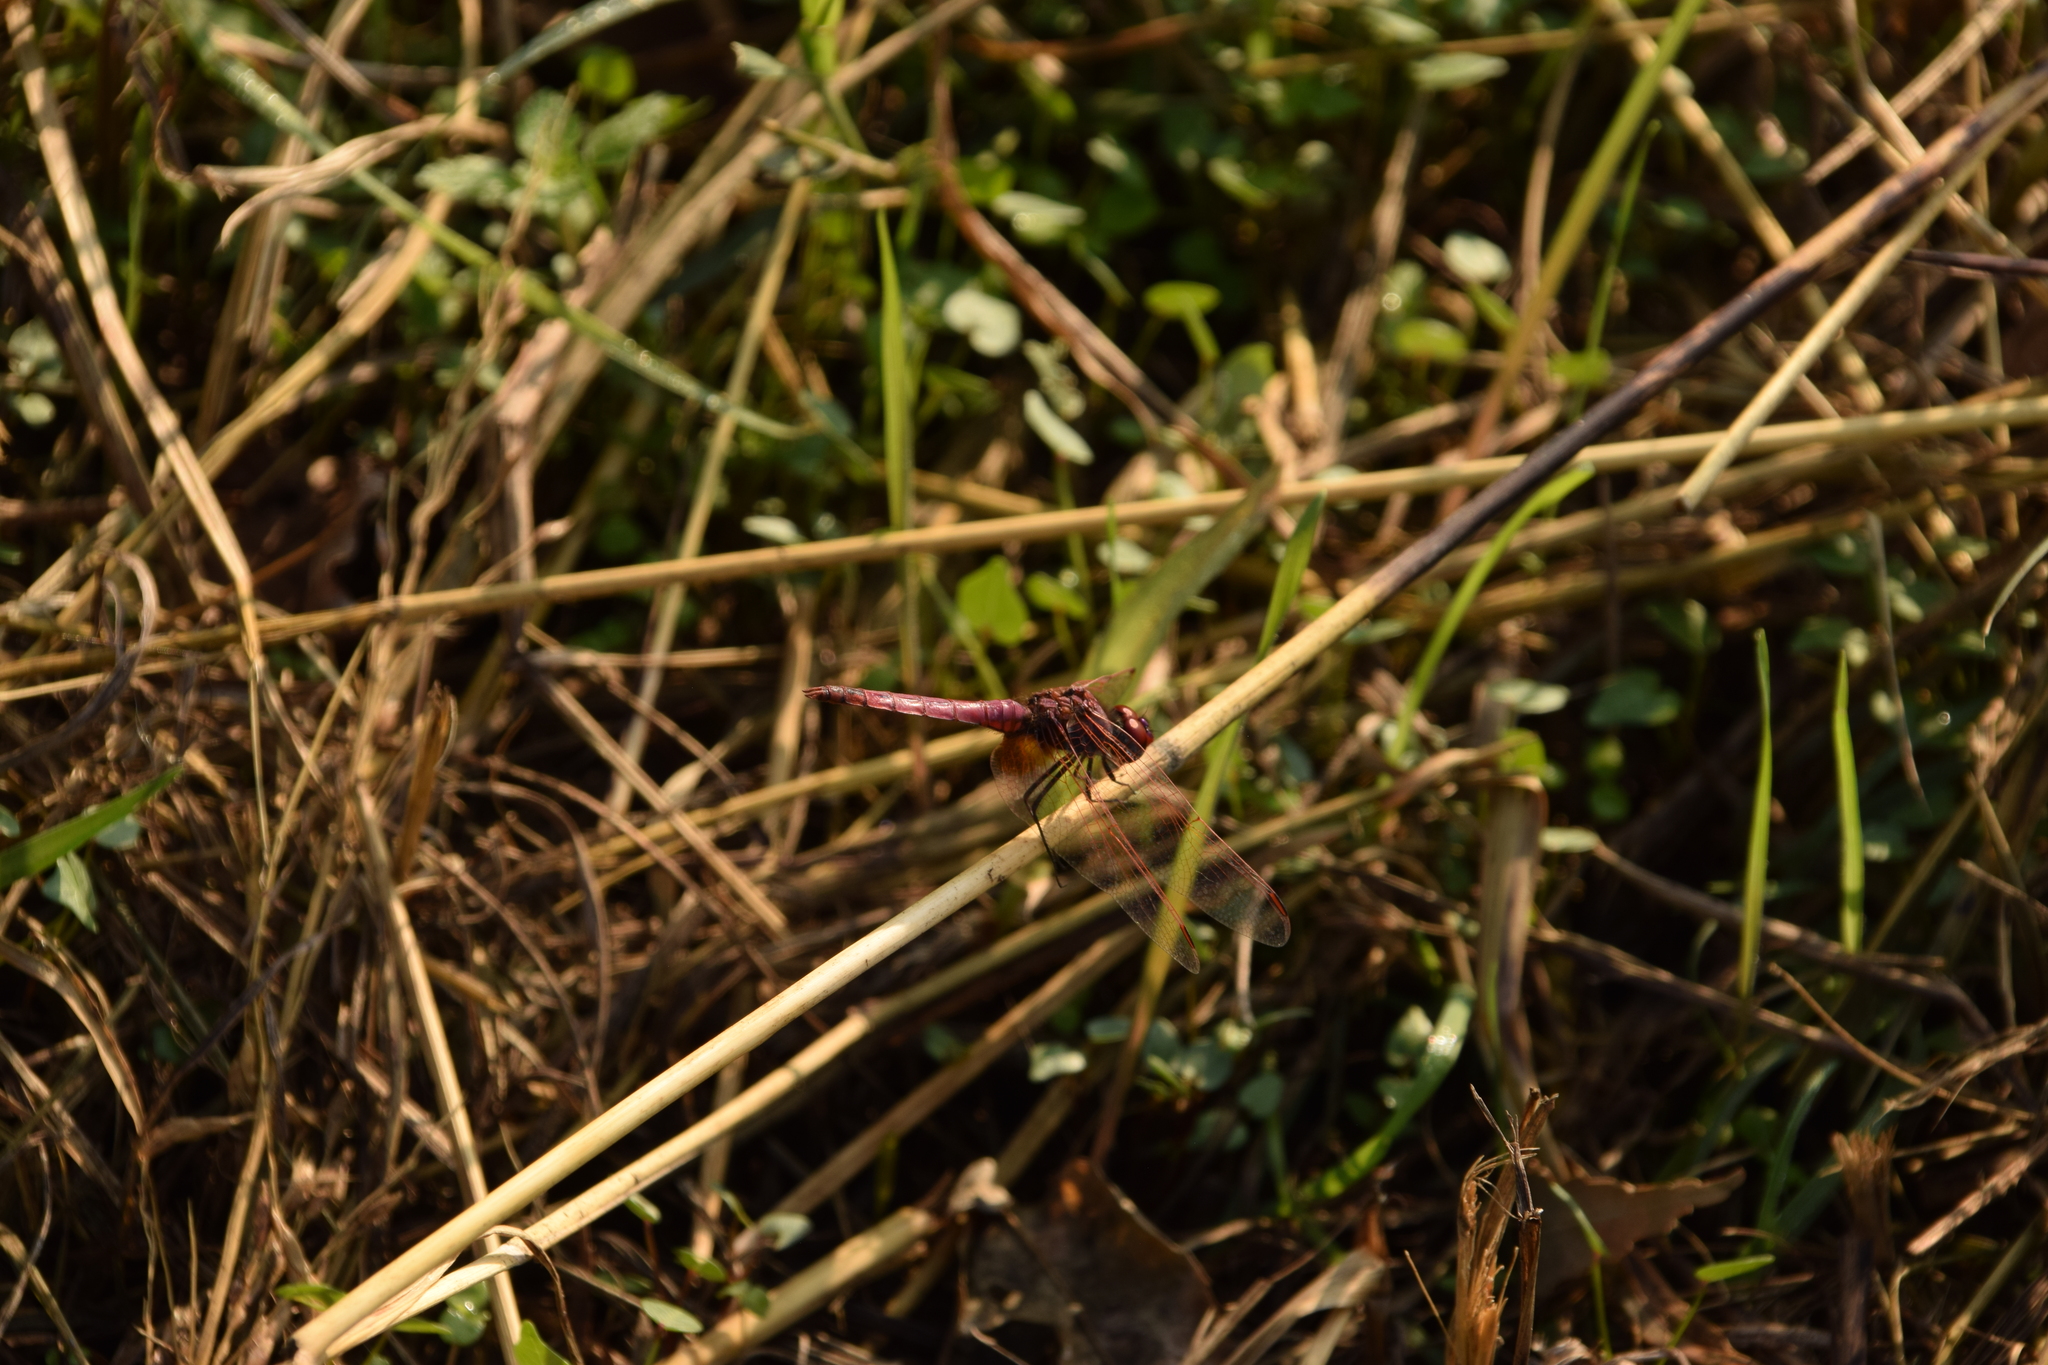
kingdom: Animalia
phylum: Arthropoda
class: Insecta
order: Odonata
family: Libellulidae
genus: Trithemis
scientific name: Trithemis annulata
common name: Violet dropwing
